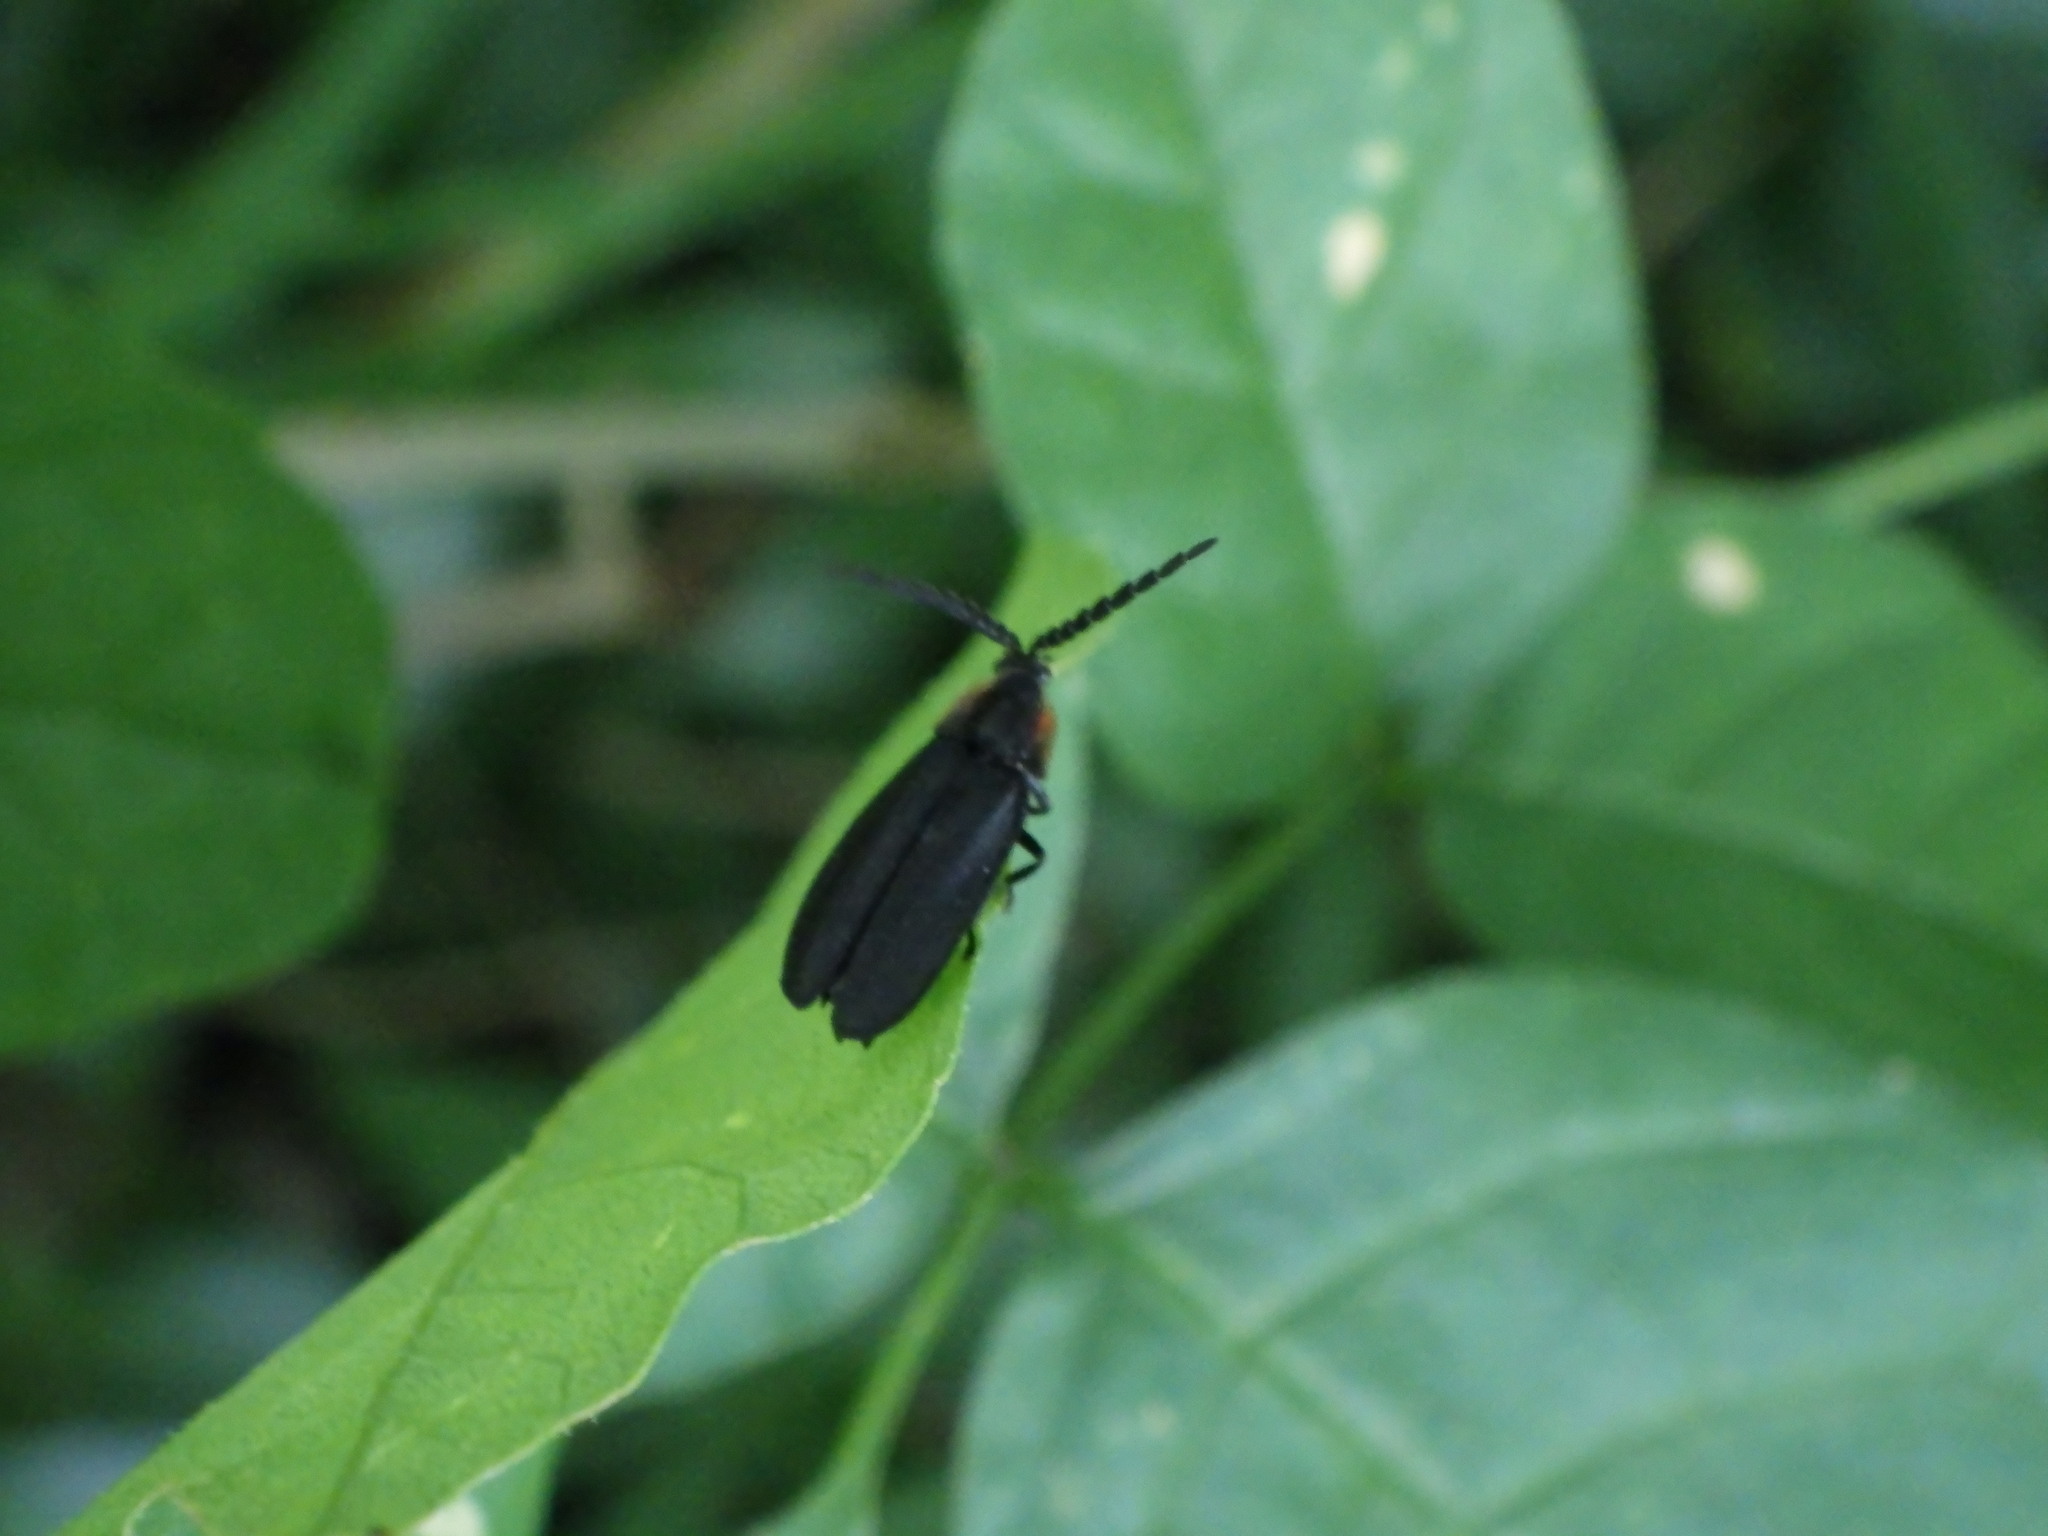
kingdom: Animalia
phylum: Arthropoda
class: Insecta
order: Coleoptera
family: Lampyridae
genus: Lucidota
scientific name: Lucidota atra
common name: Black firefly
